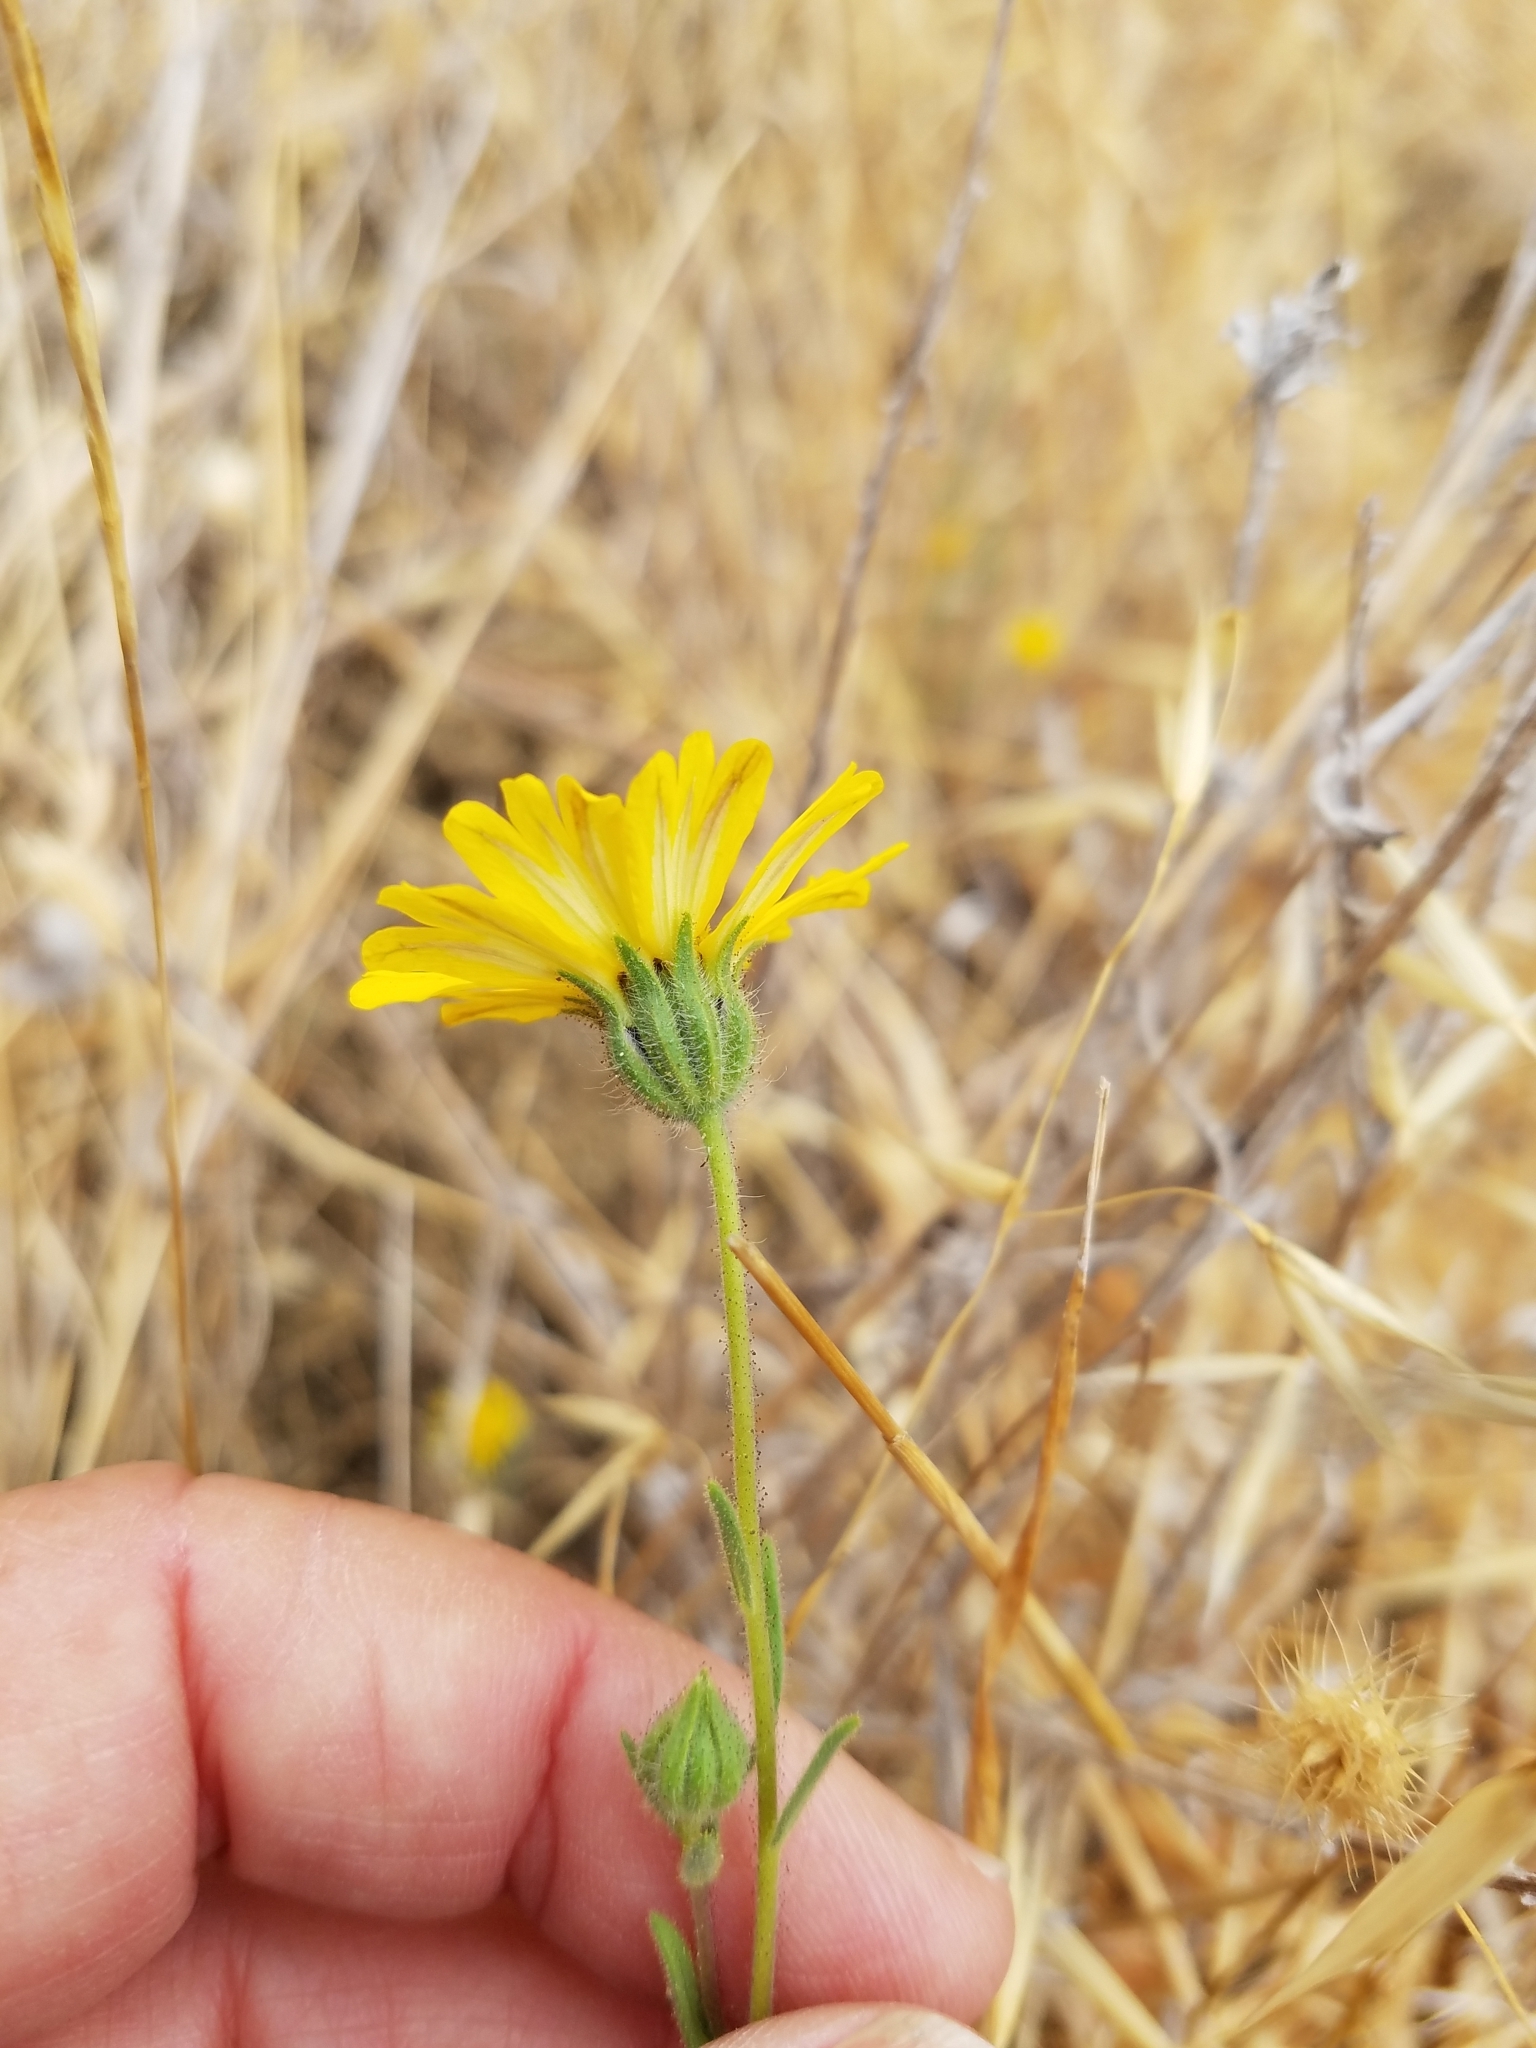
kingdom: Plantae
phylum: Tracheophyta
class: Magnoliopsida
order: Asterales
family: Asteraceae
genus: Madia
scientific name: Madia elegans
